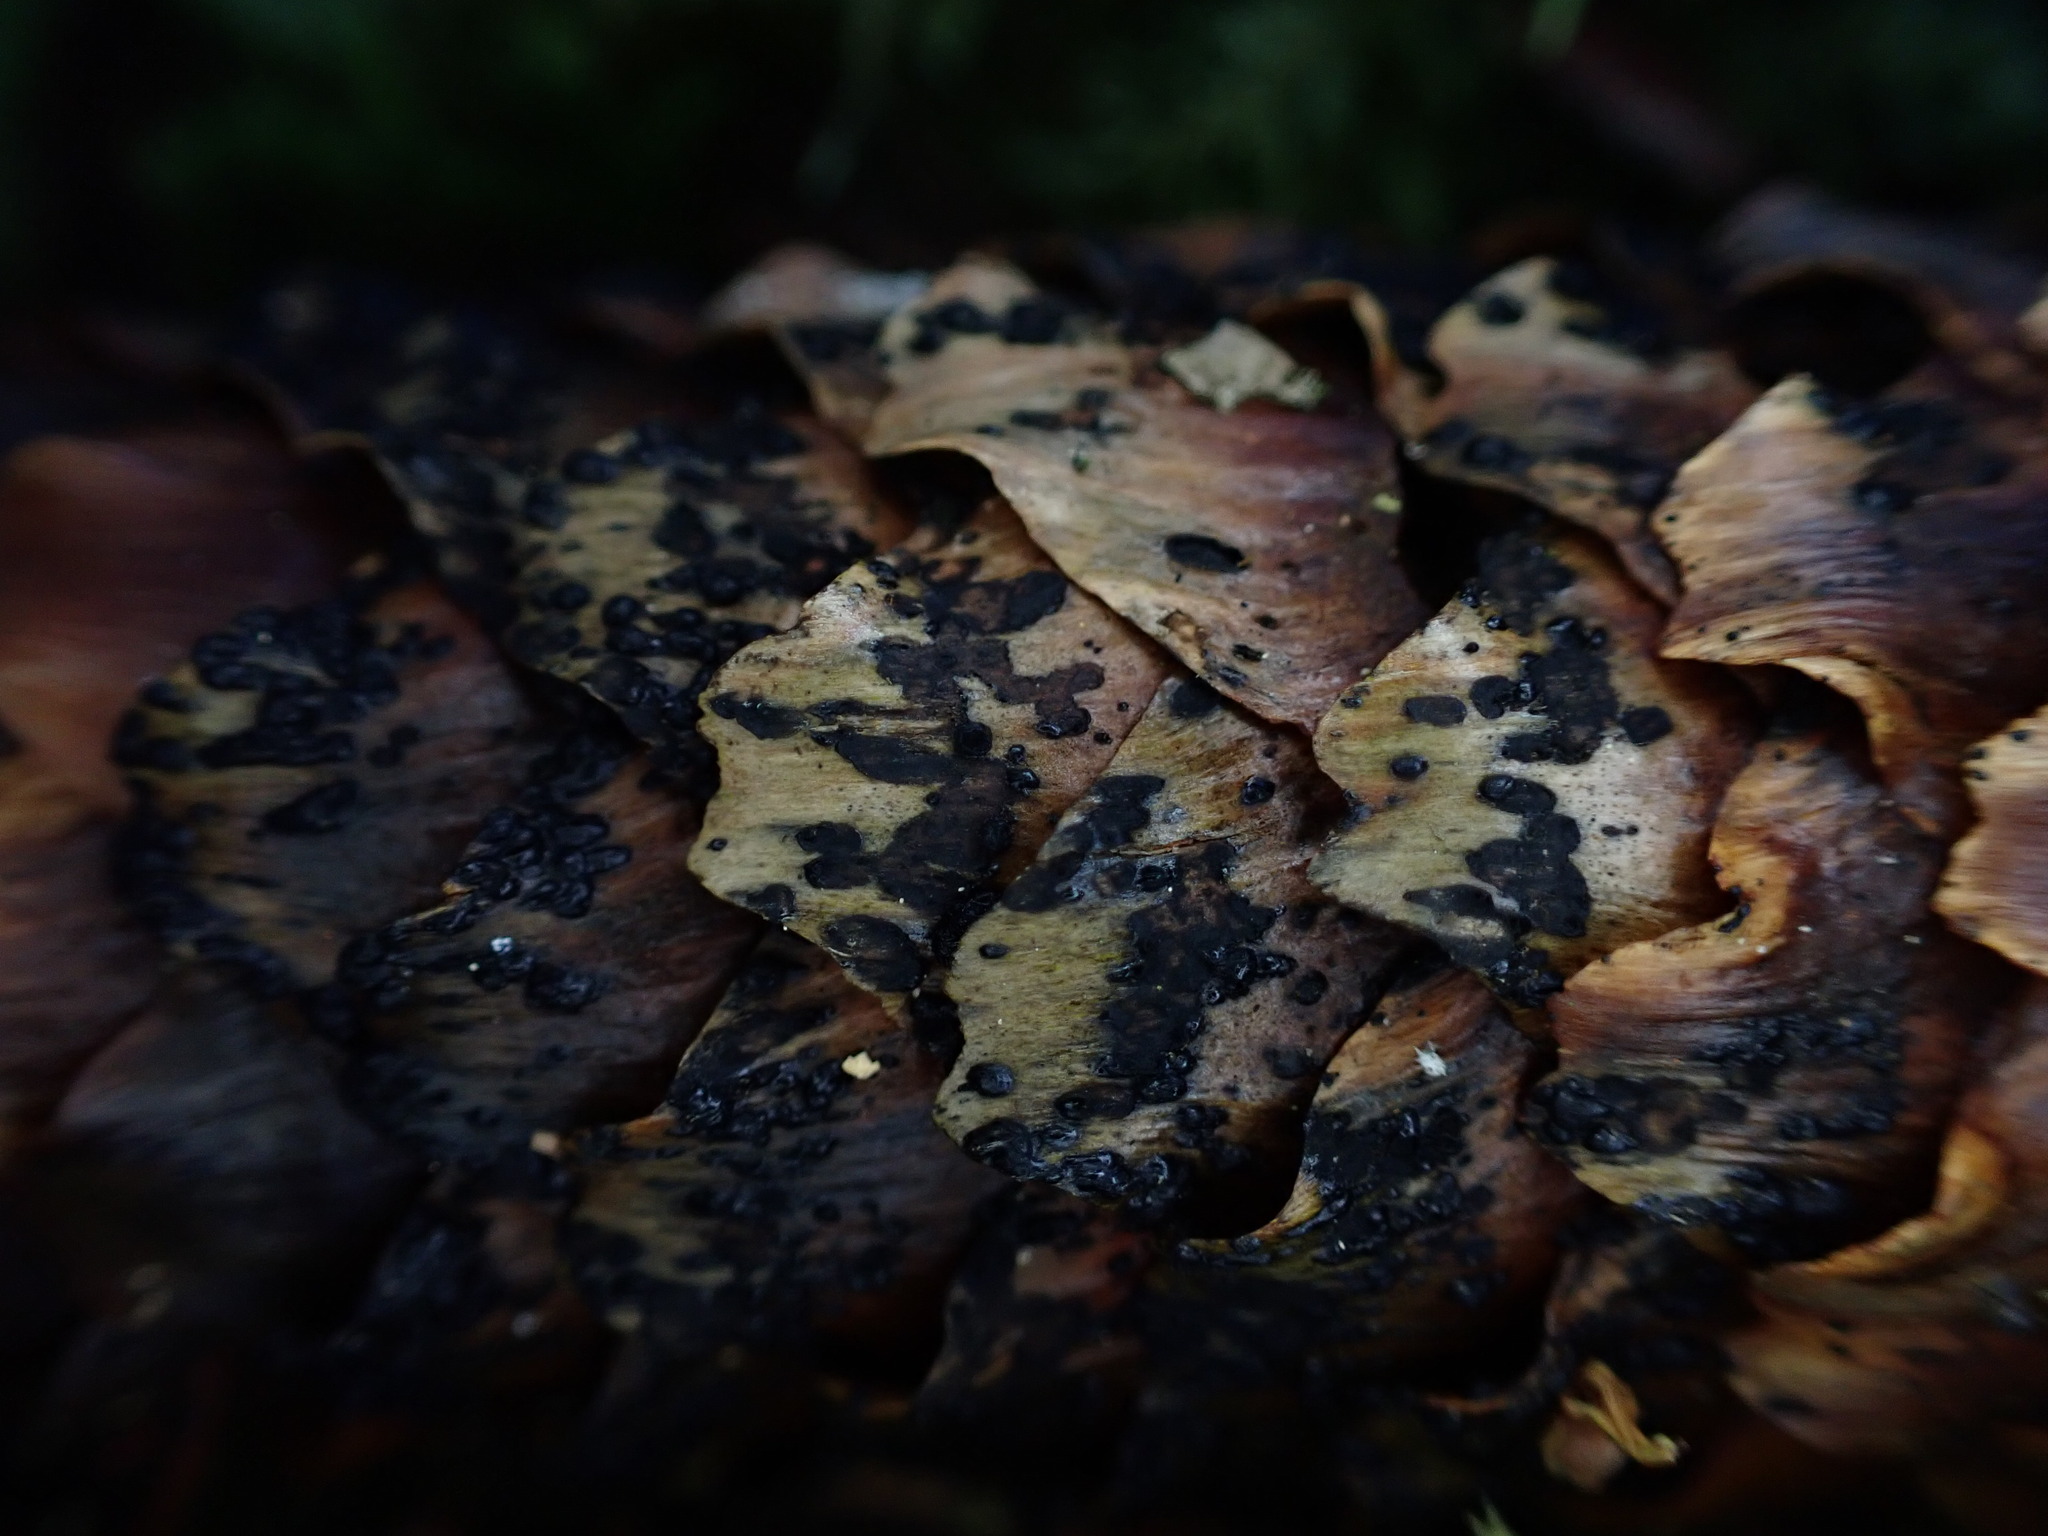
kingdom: Fungi
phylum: Ascomycota
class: Dothideomycetes
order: Pleosporales
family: Melanommataceae
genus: Phragmotrichum
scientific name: Phragmotrichum chailletii
